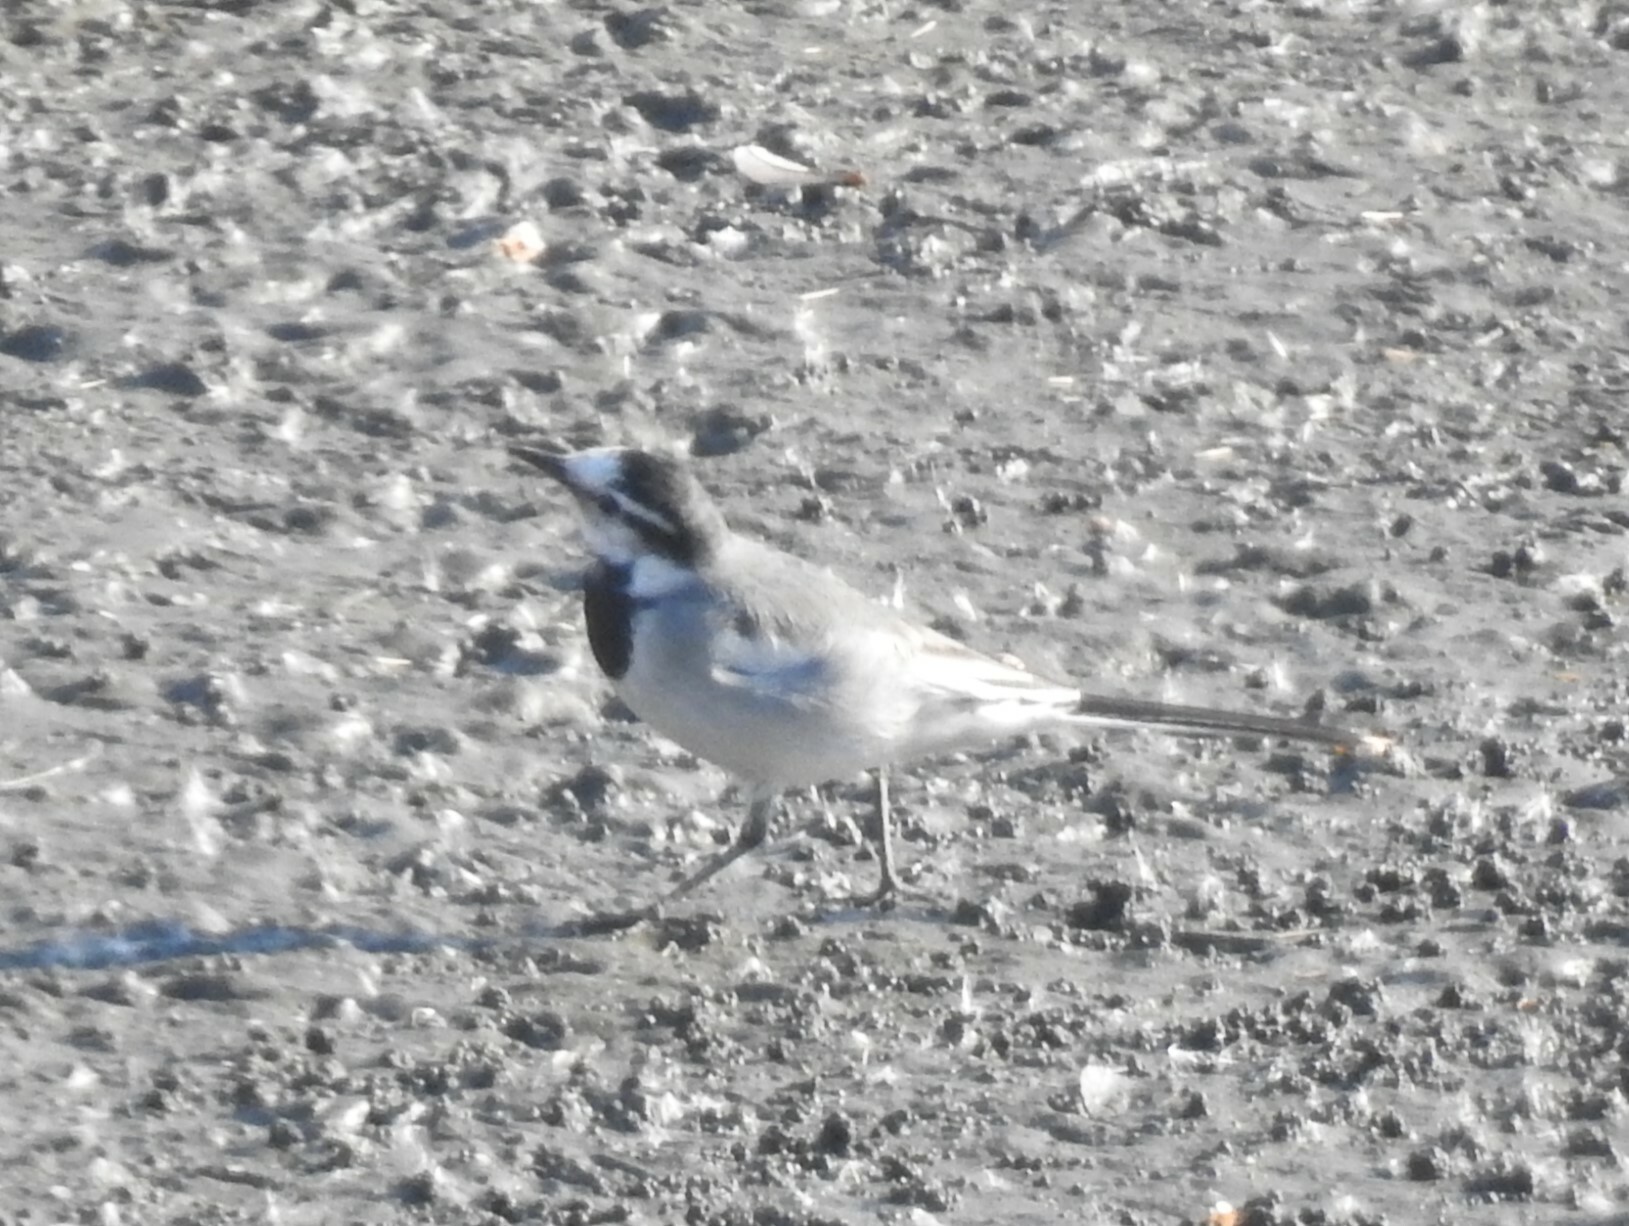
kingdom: Animalia
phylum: Chordata
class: Aves
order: Passeriformes
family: Motacillidae
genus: Motacilla
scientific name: Motacilla alba
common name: White wagtail
